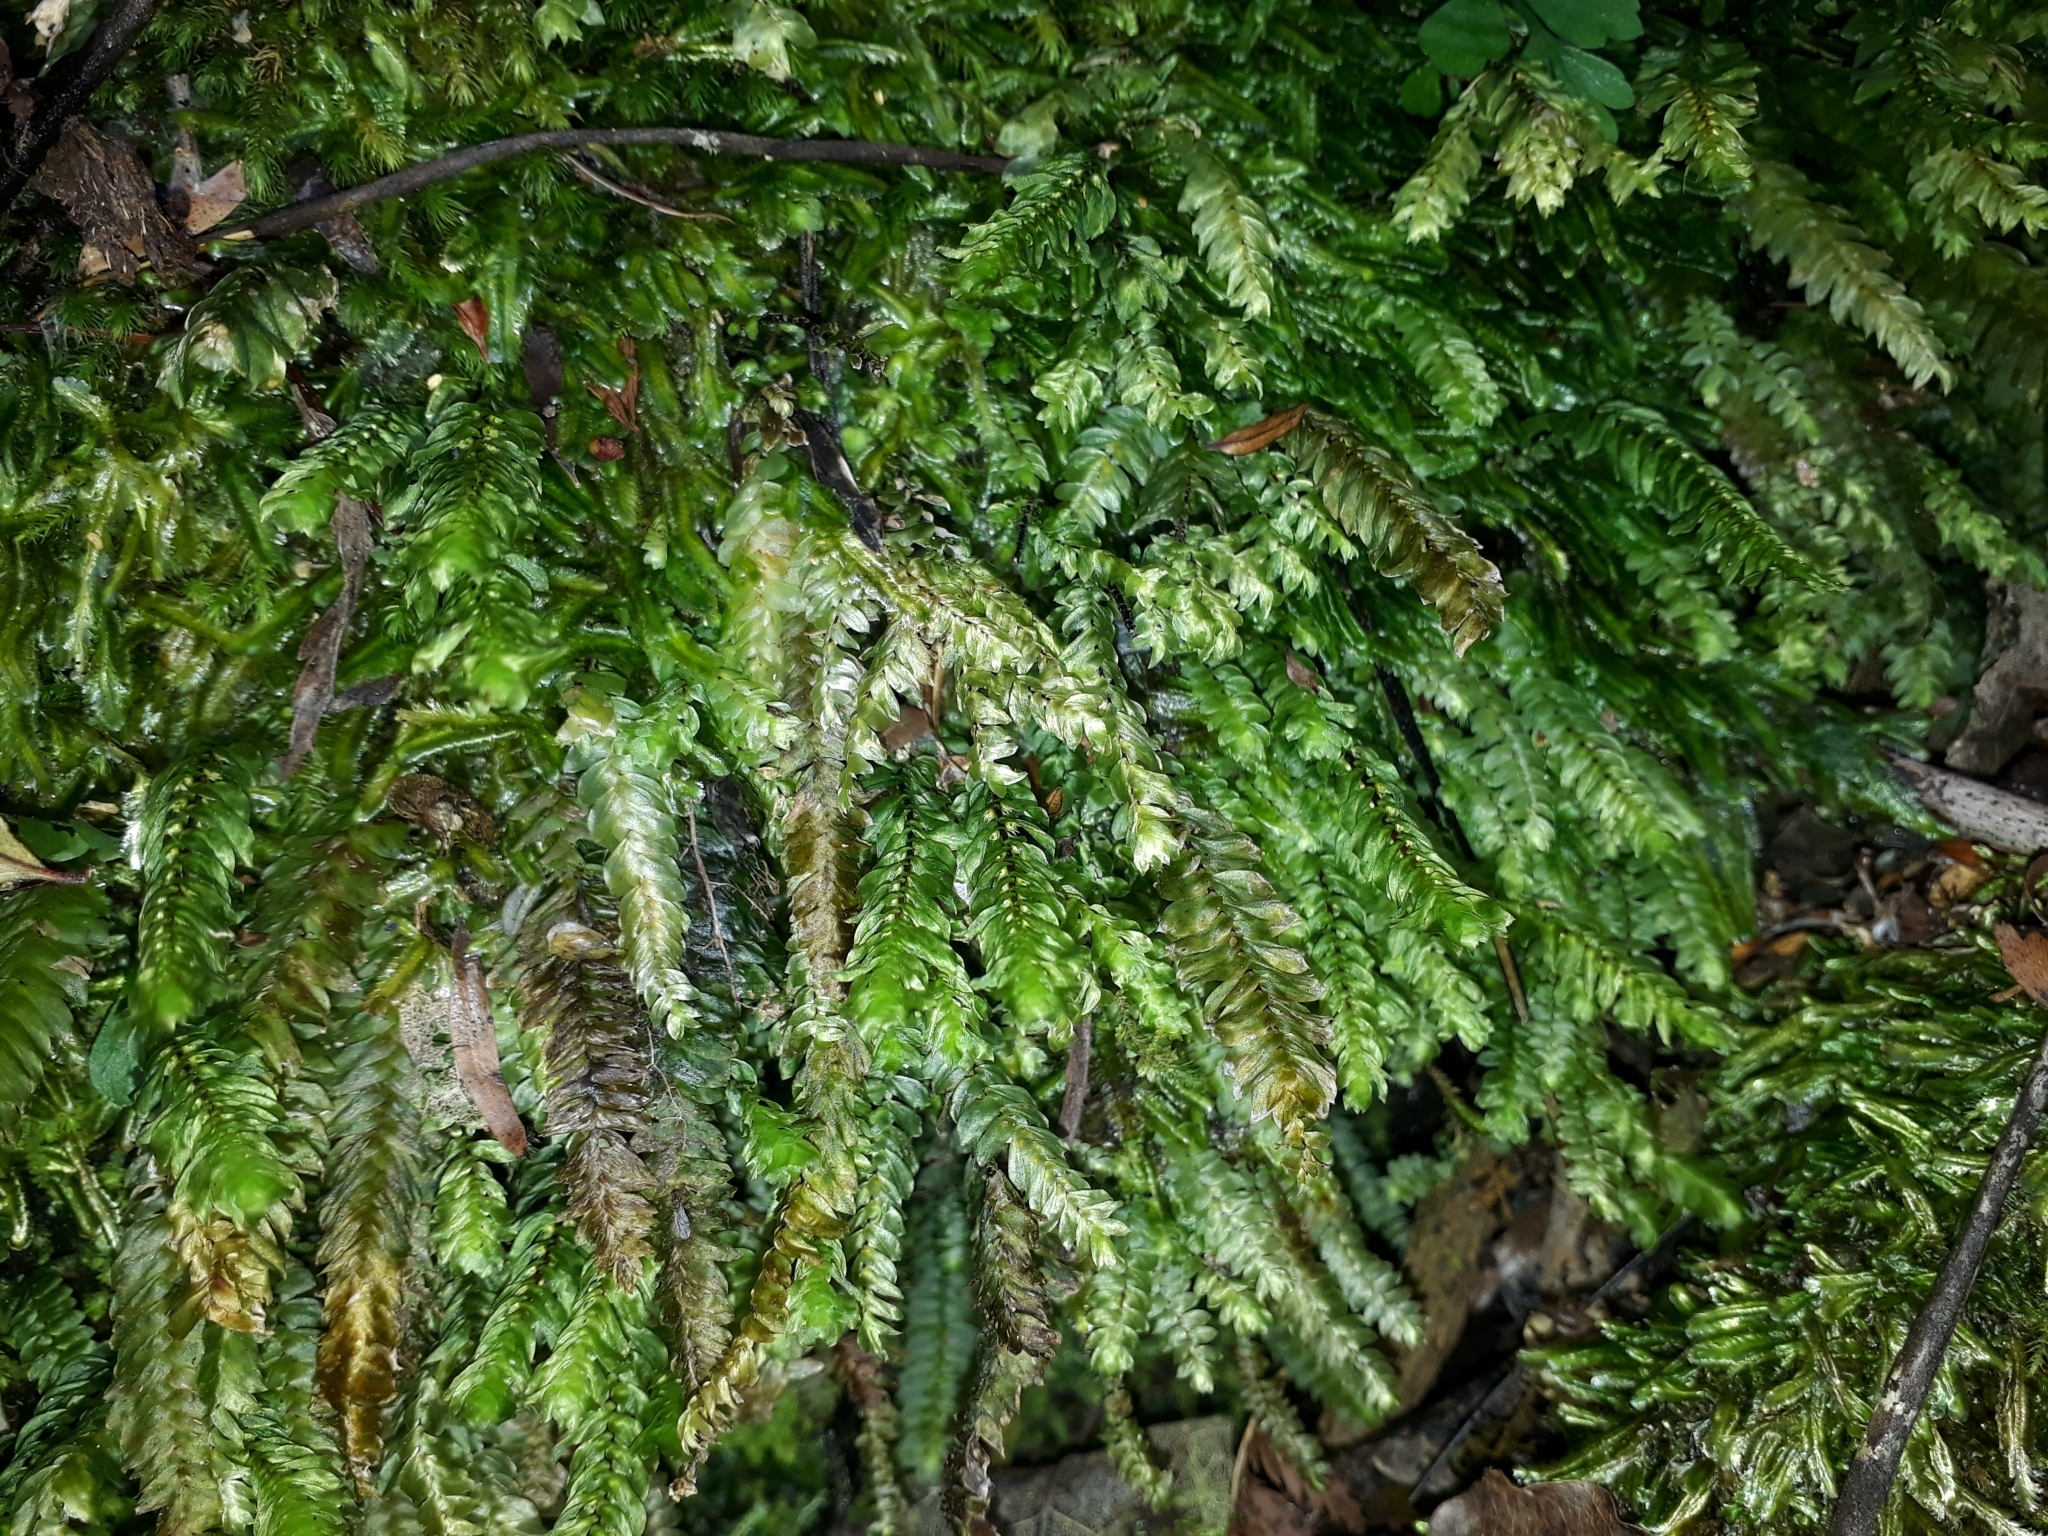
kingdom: Plantae
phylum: Bryophyta
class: Bryopsida
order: Hypopterygiales
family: Hypopterygiaceae
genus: Cyathophorum
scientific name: Cyathophorum bulbosum
